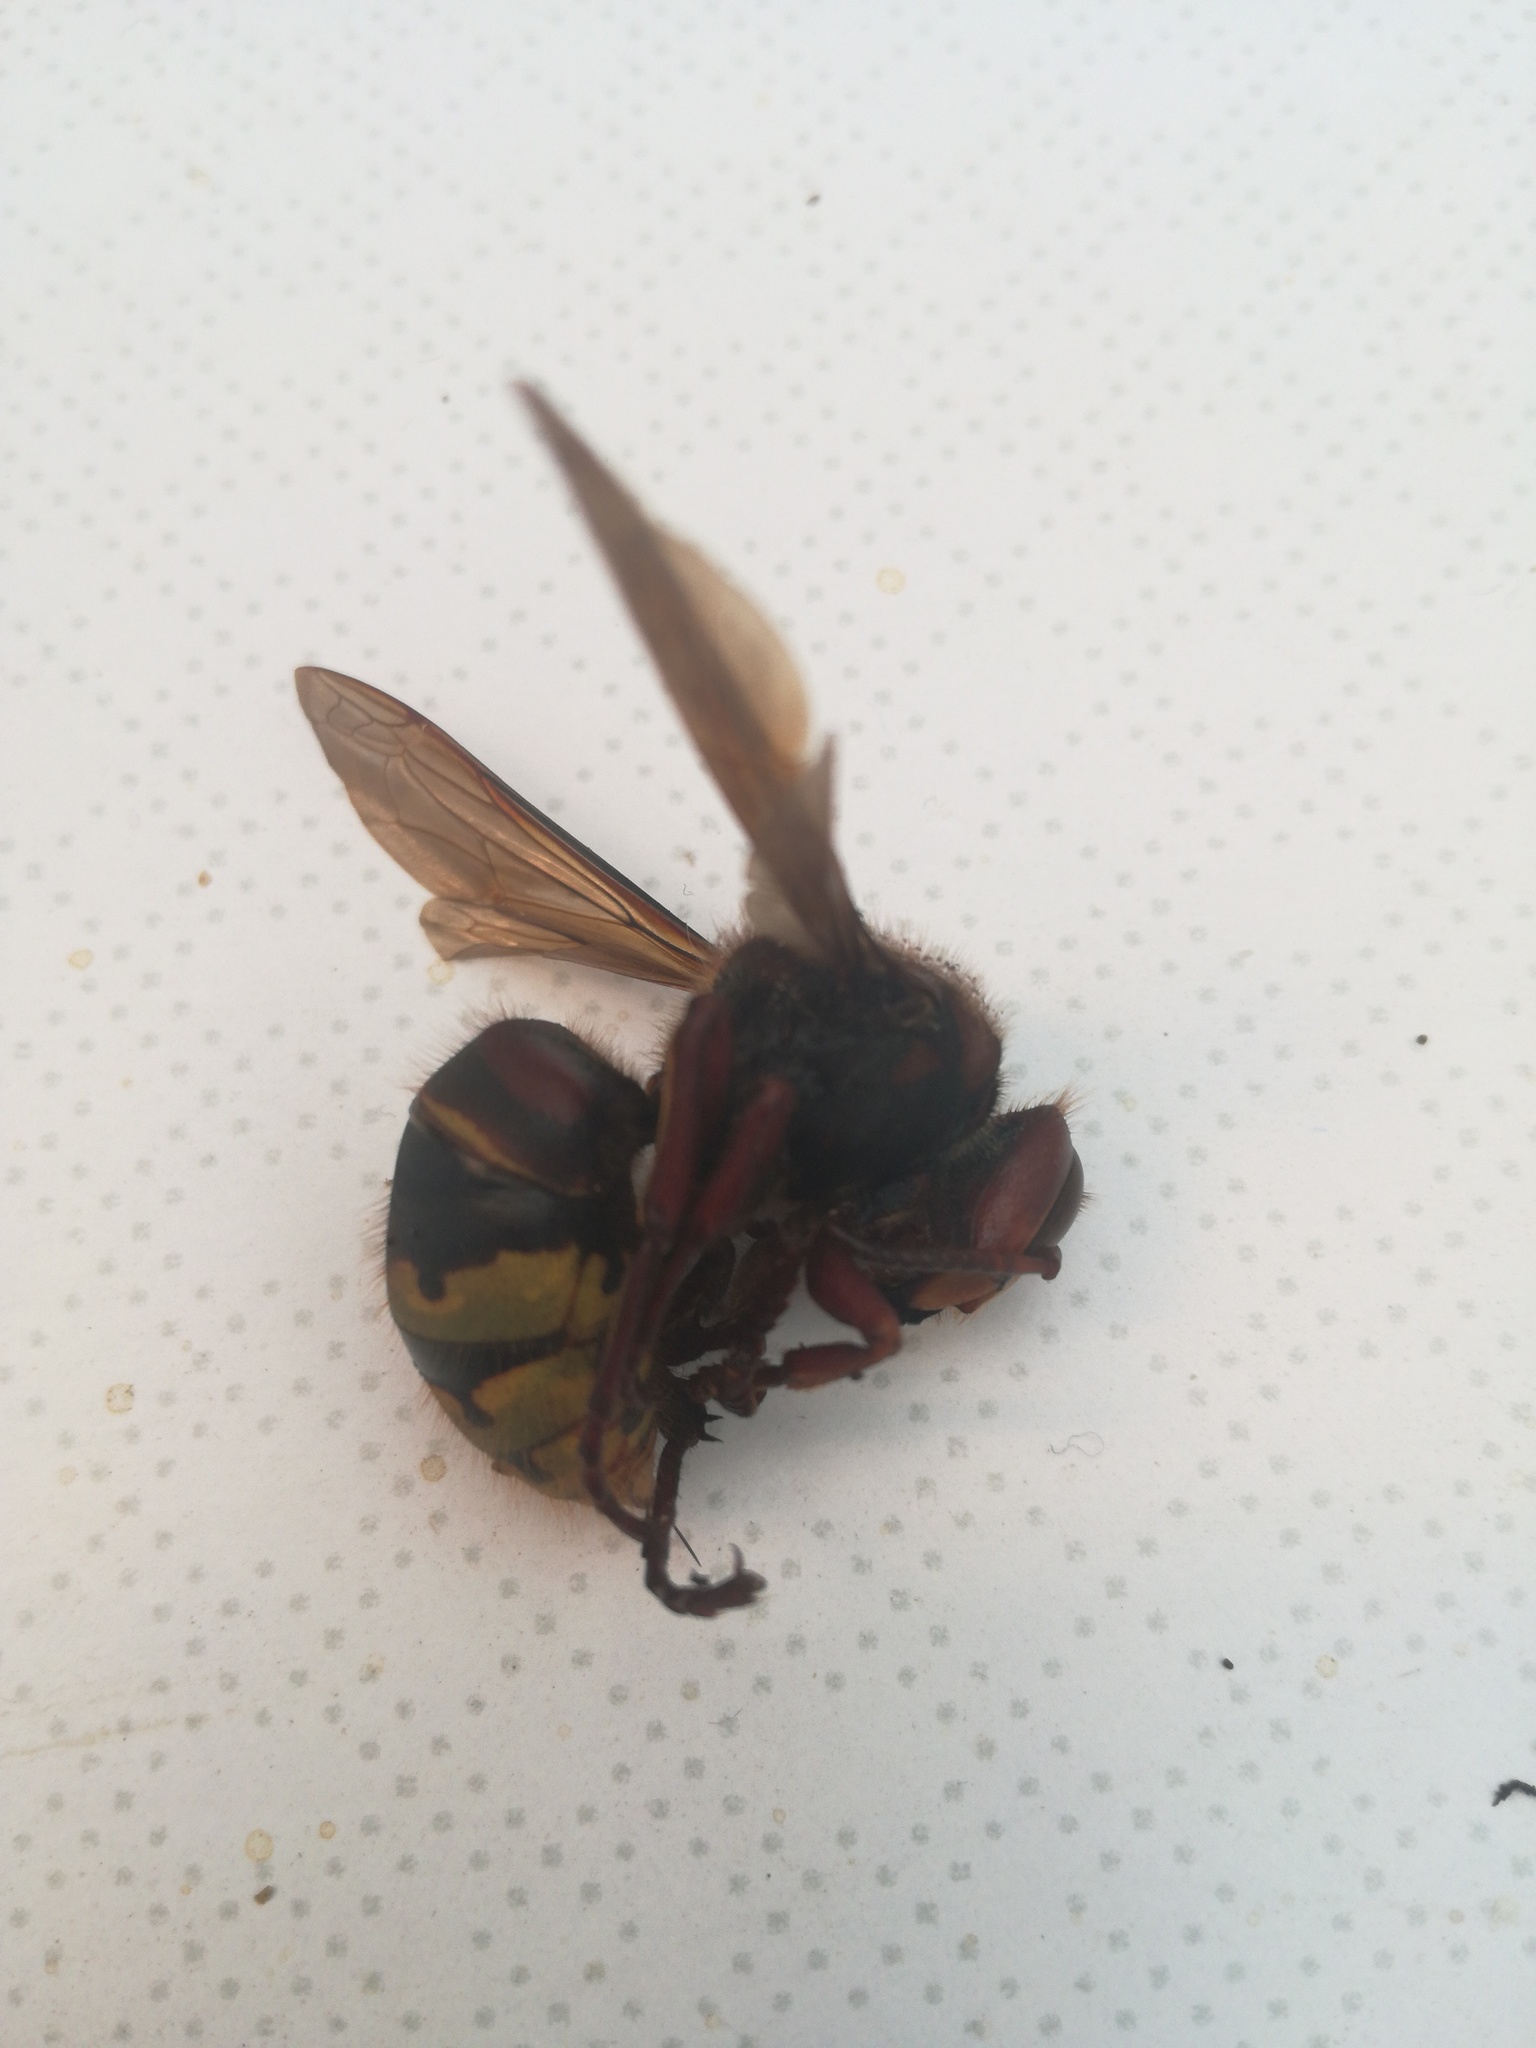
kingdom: Animalia
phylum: Arthropoda
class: Insecta
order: Hymenoptera
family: Vespidae
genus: Vespa
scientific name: Vespa crabro
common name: Hornet
